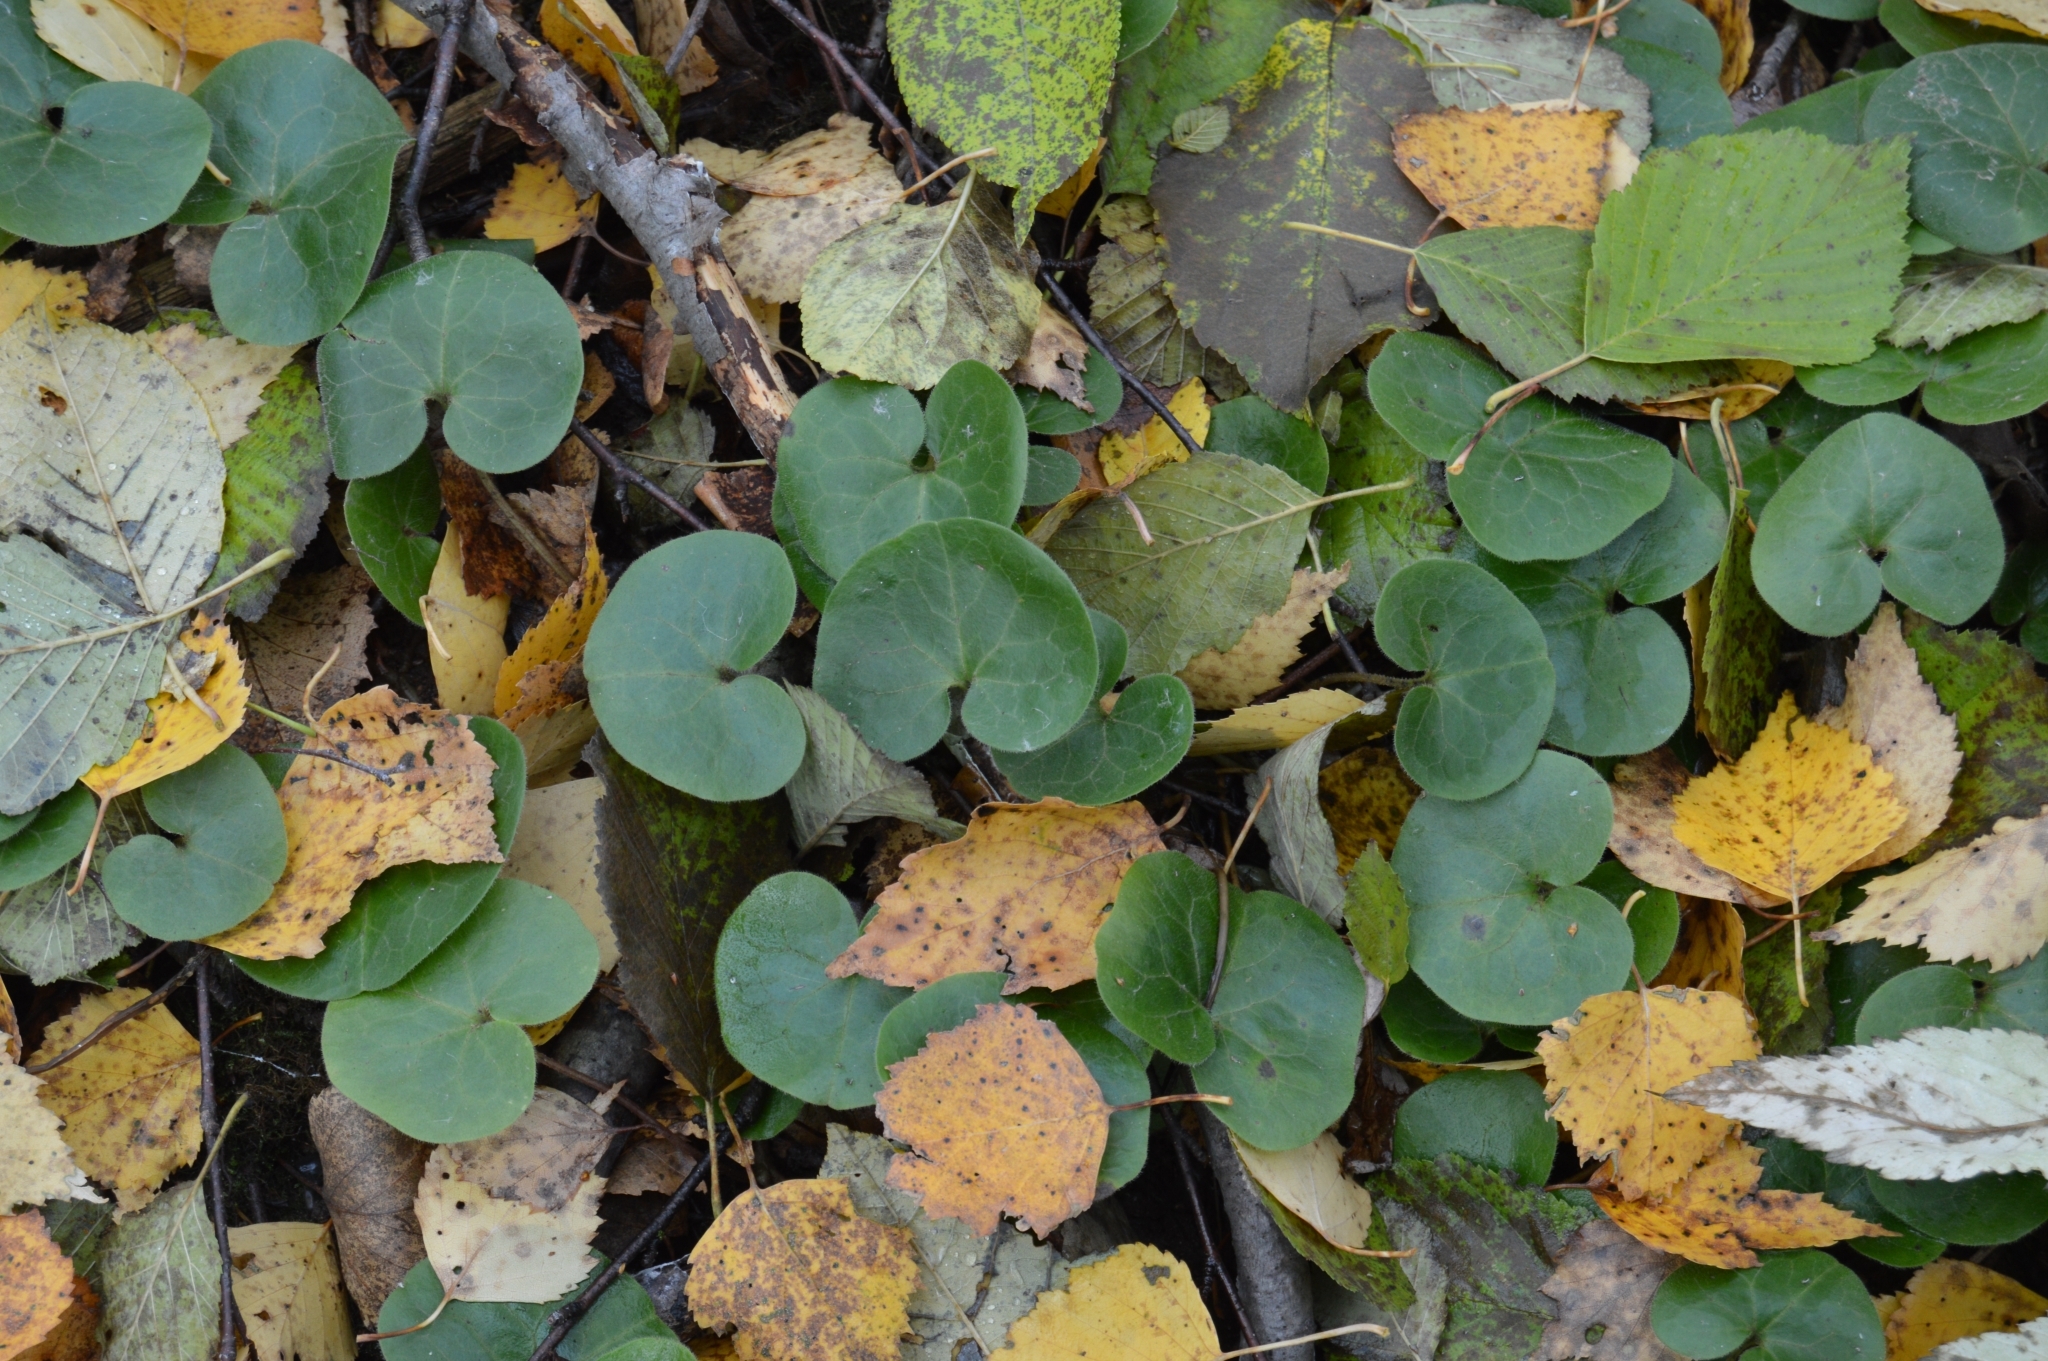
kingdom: Plantae
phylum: Tracheophyta
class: Magnoliopsida
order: Piperales
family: Aristolochiaceae
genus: Asarum
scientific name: Asarum europaeum
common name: Asarabacca
